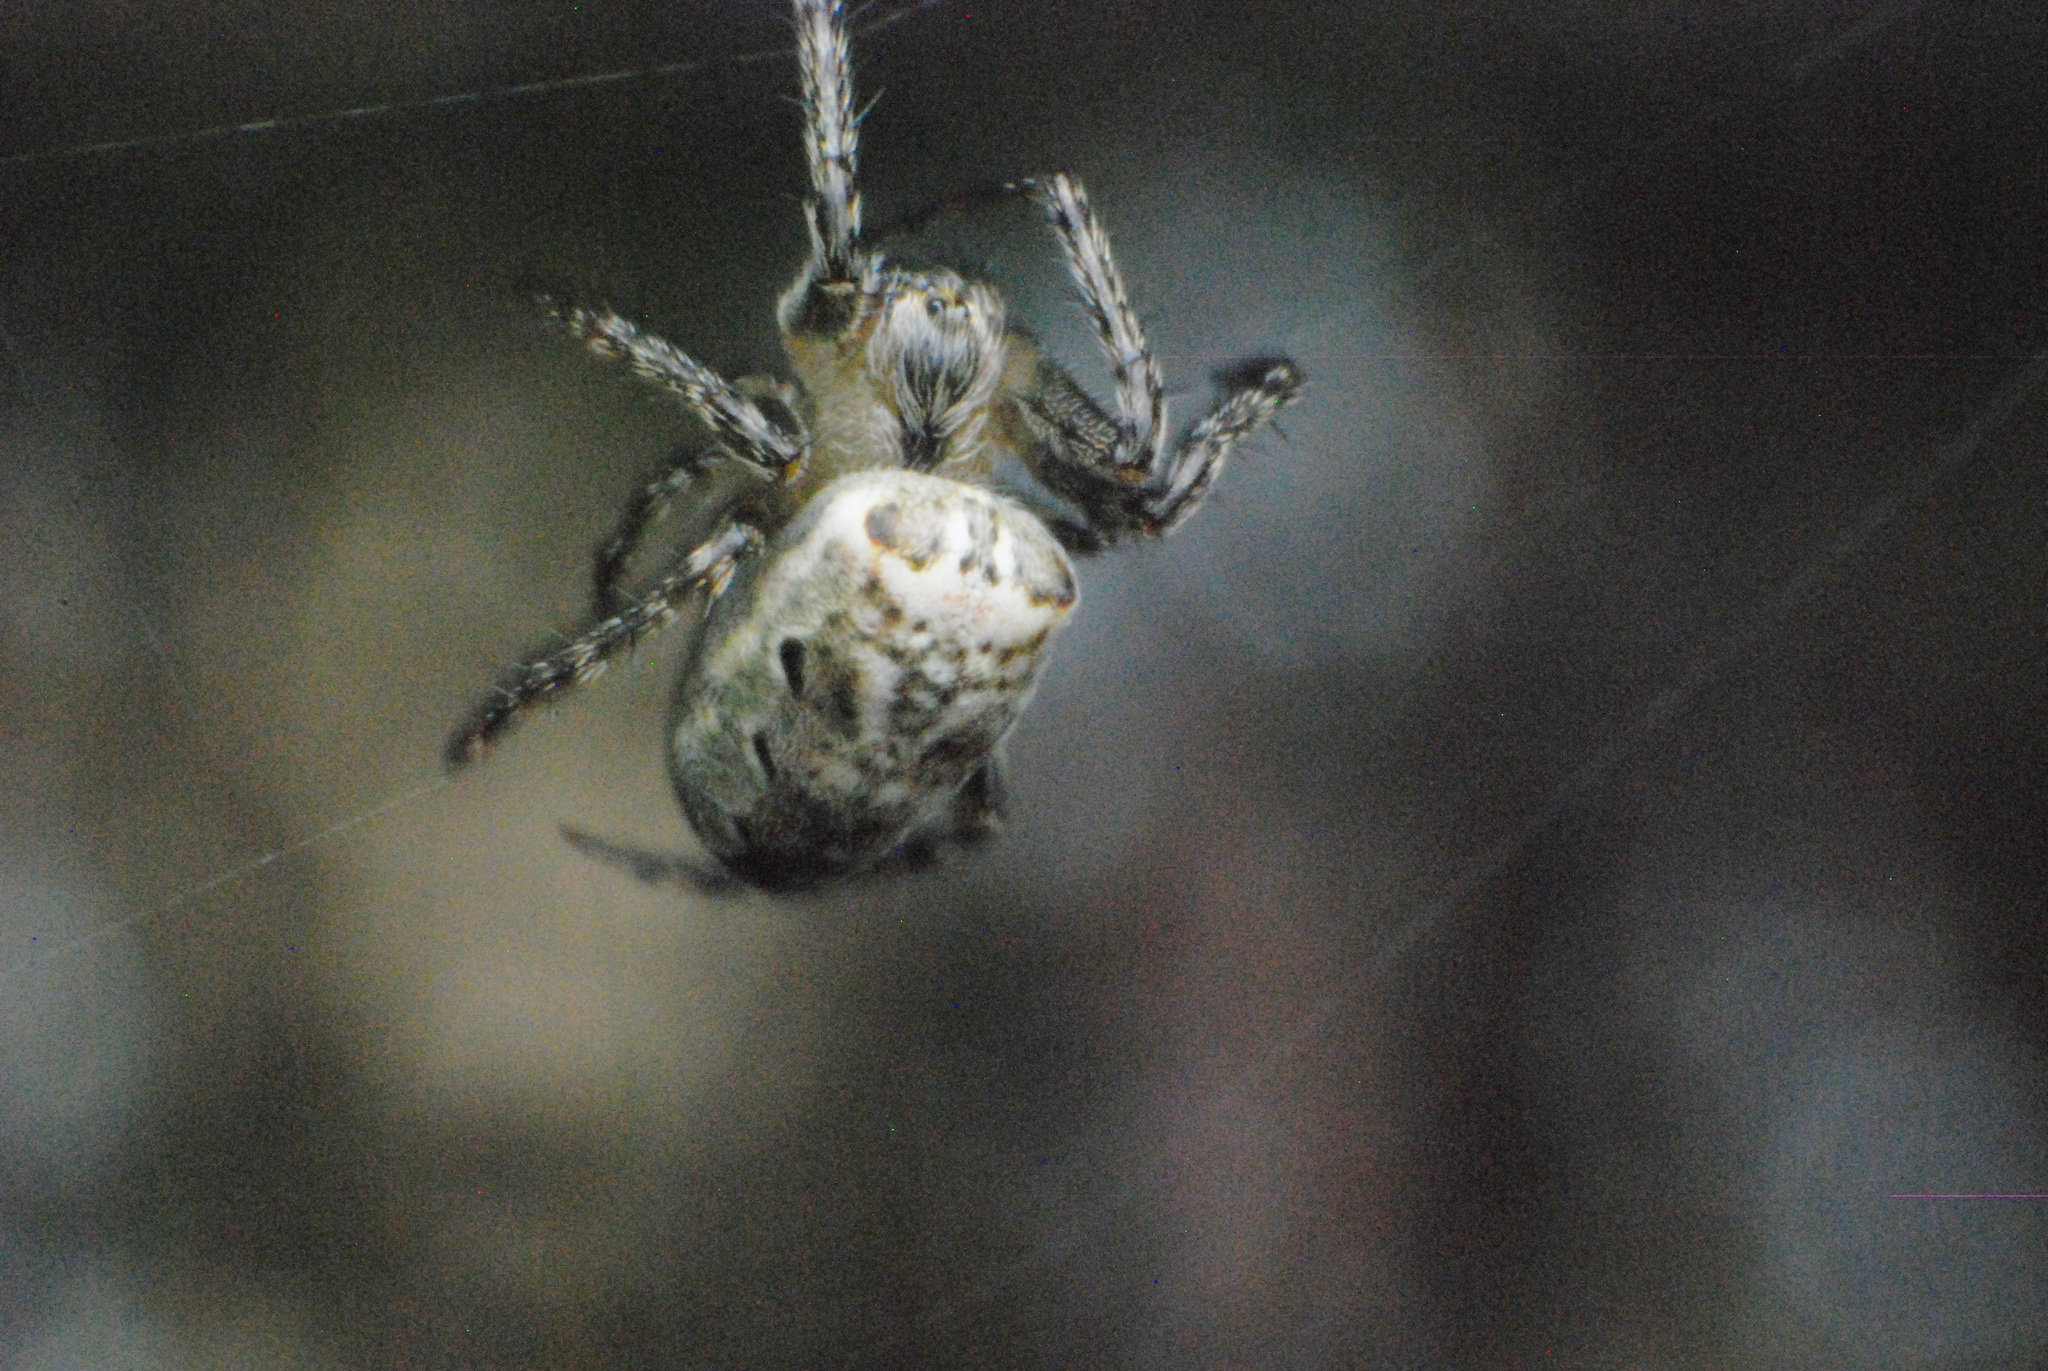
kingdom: Animalia
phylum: Arthropoda
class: Arachnida
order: Araneae
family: Araneidae
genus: Plebs
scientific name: Plebs eburnus
